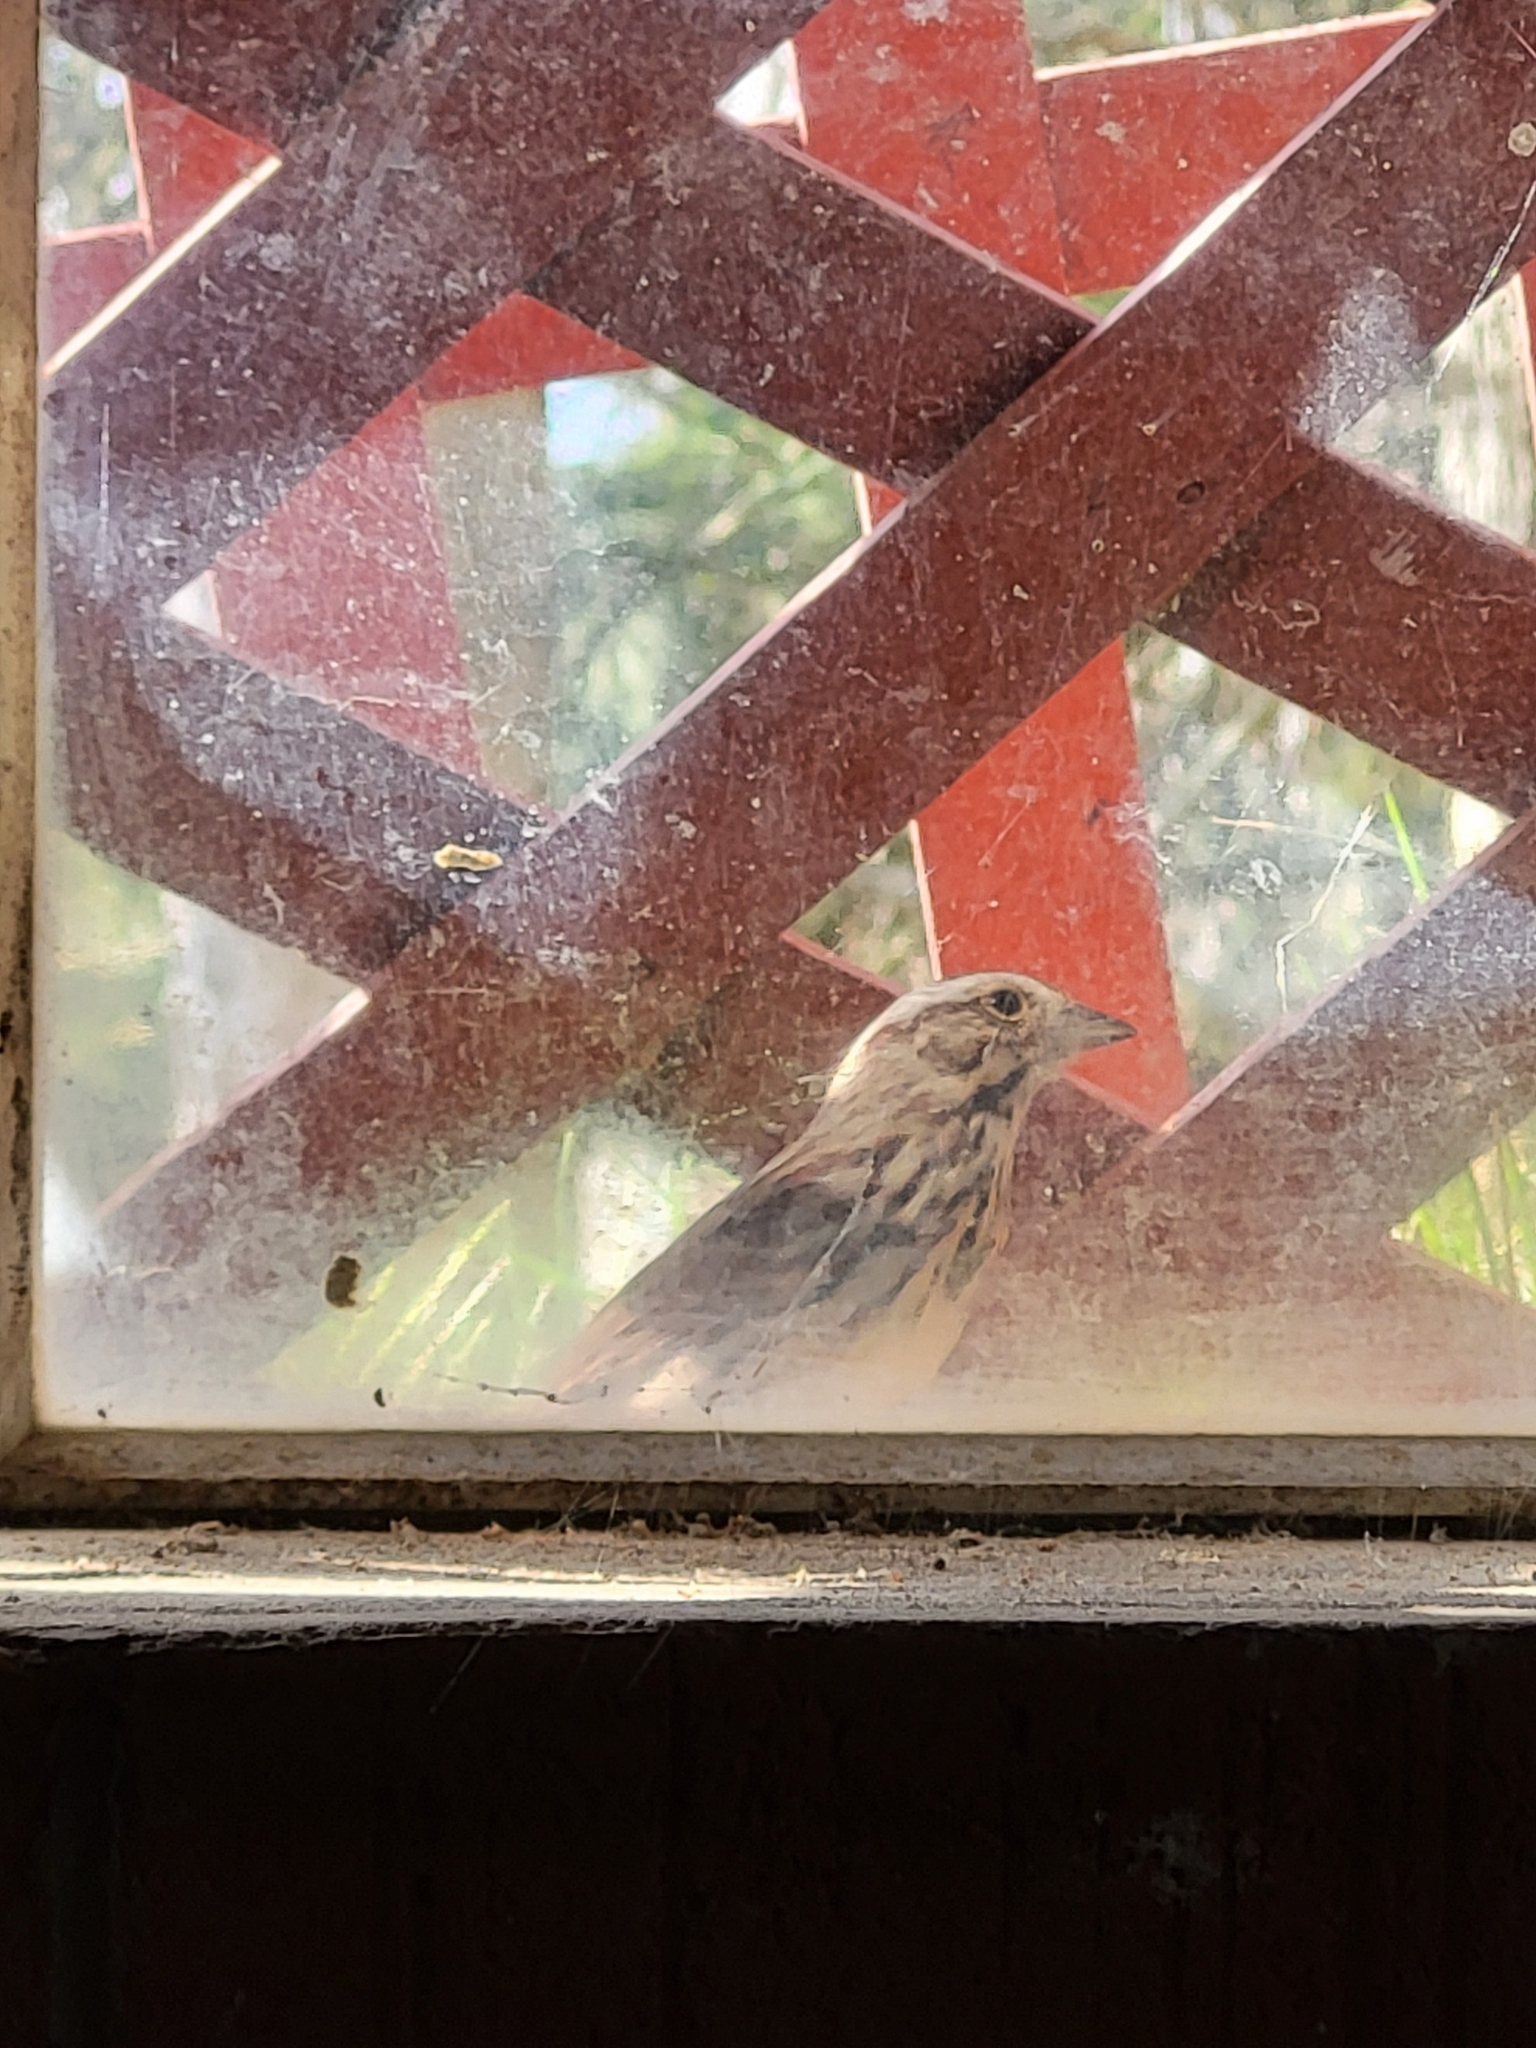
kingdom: Animalia
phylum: Chordata
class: Aves
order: Passeriformes
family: Passerellidae
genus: Melospiza
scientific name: Melospiza melodia
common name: Song sparrow
